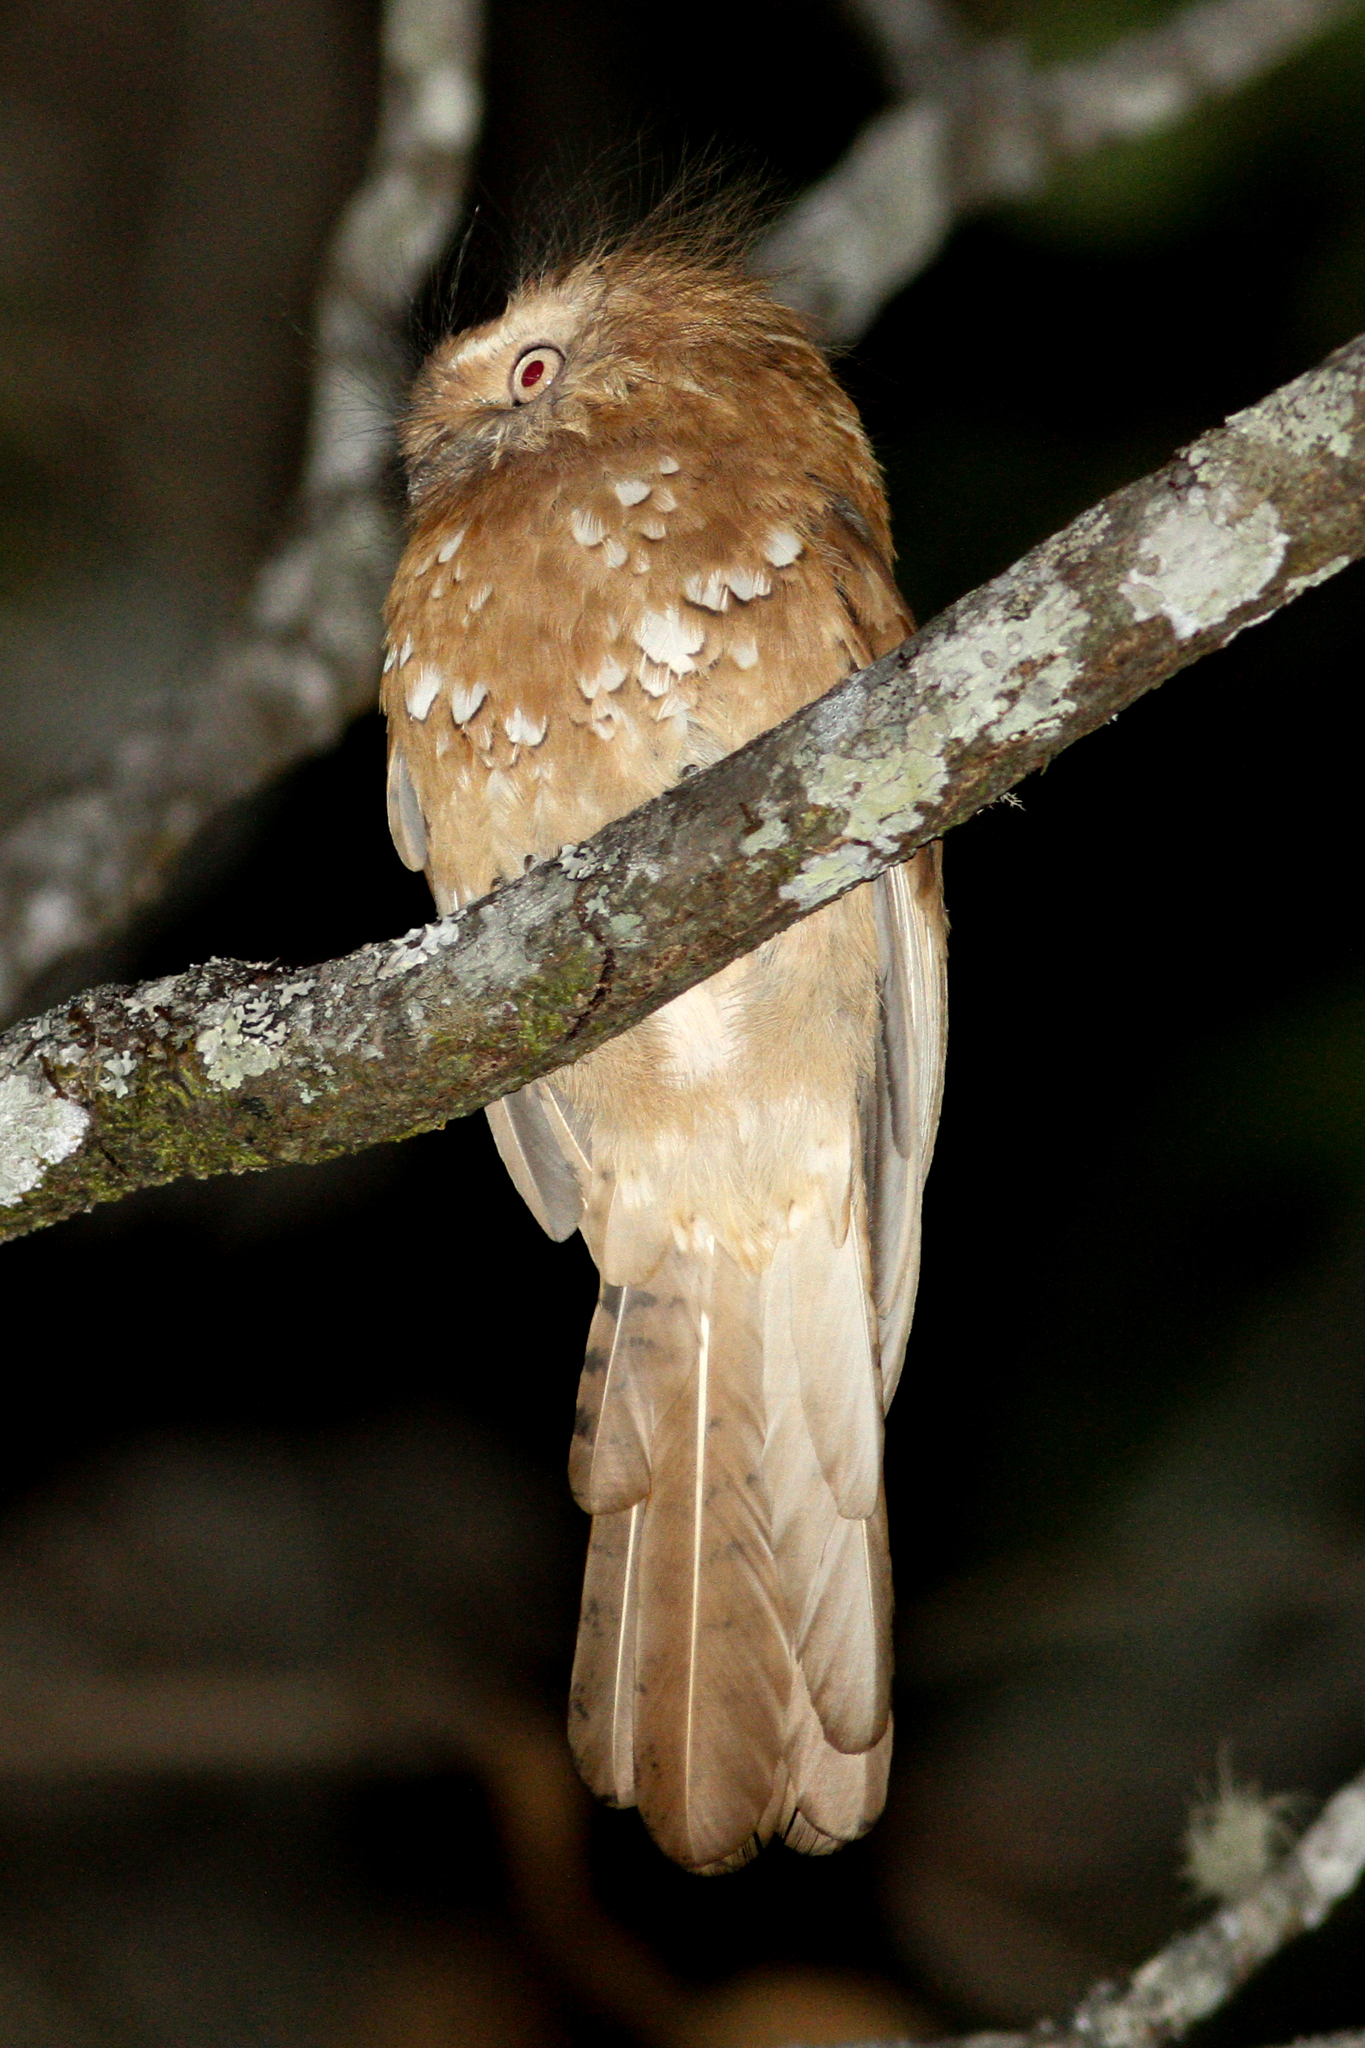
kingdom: Animalia
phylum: Chordata
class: Aves
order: Caprimulgiformes
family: Podargidae
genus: Batrachostomus
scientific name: Batrachostomus hodgsoni
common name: Hodgson's frogmouth
